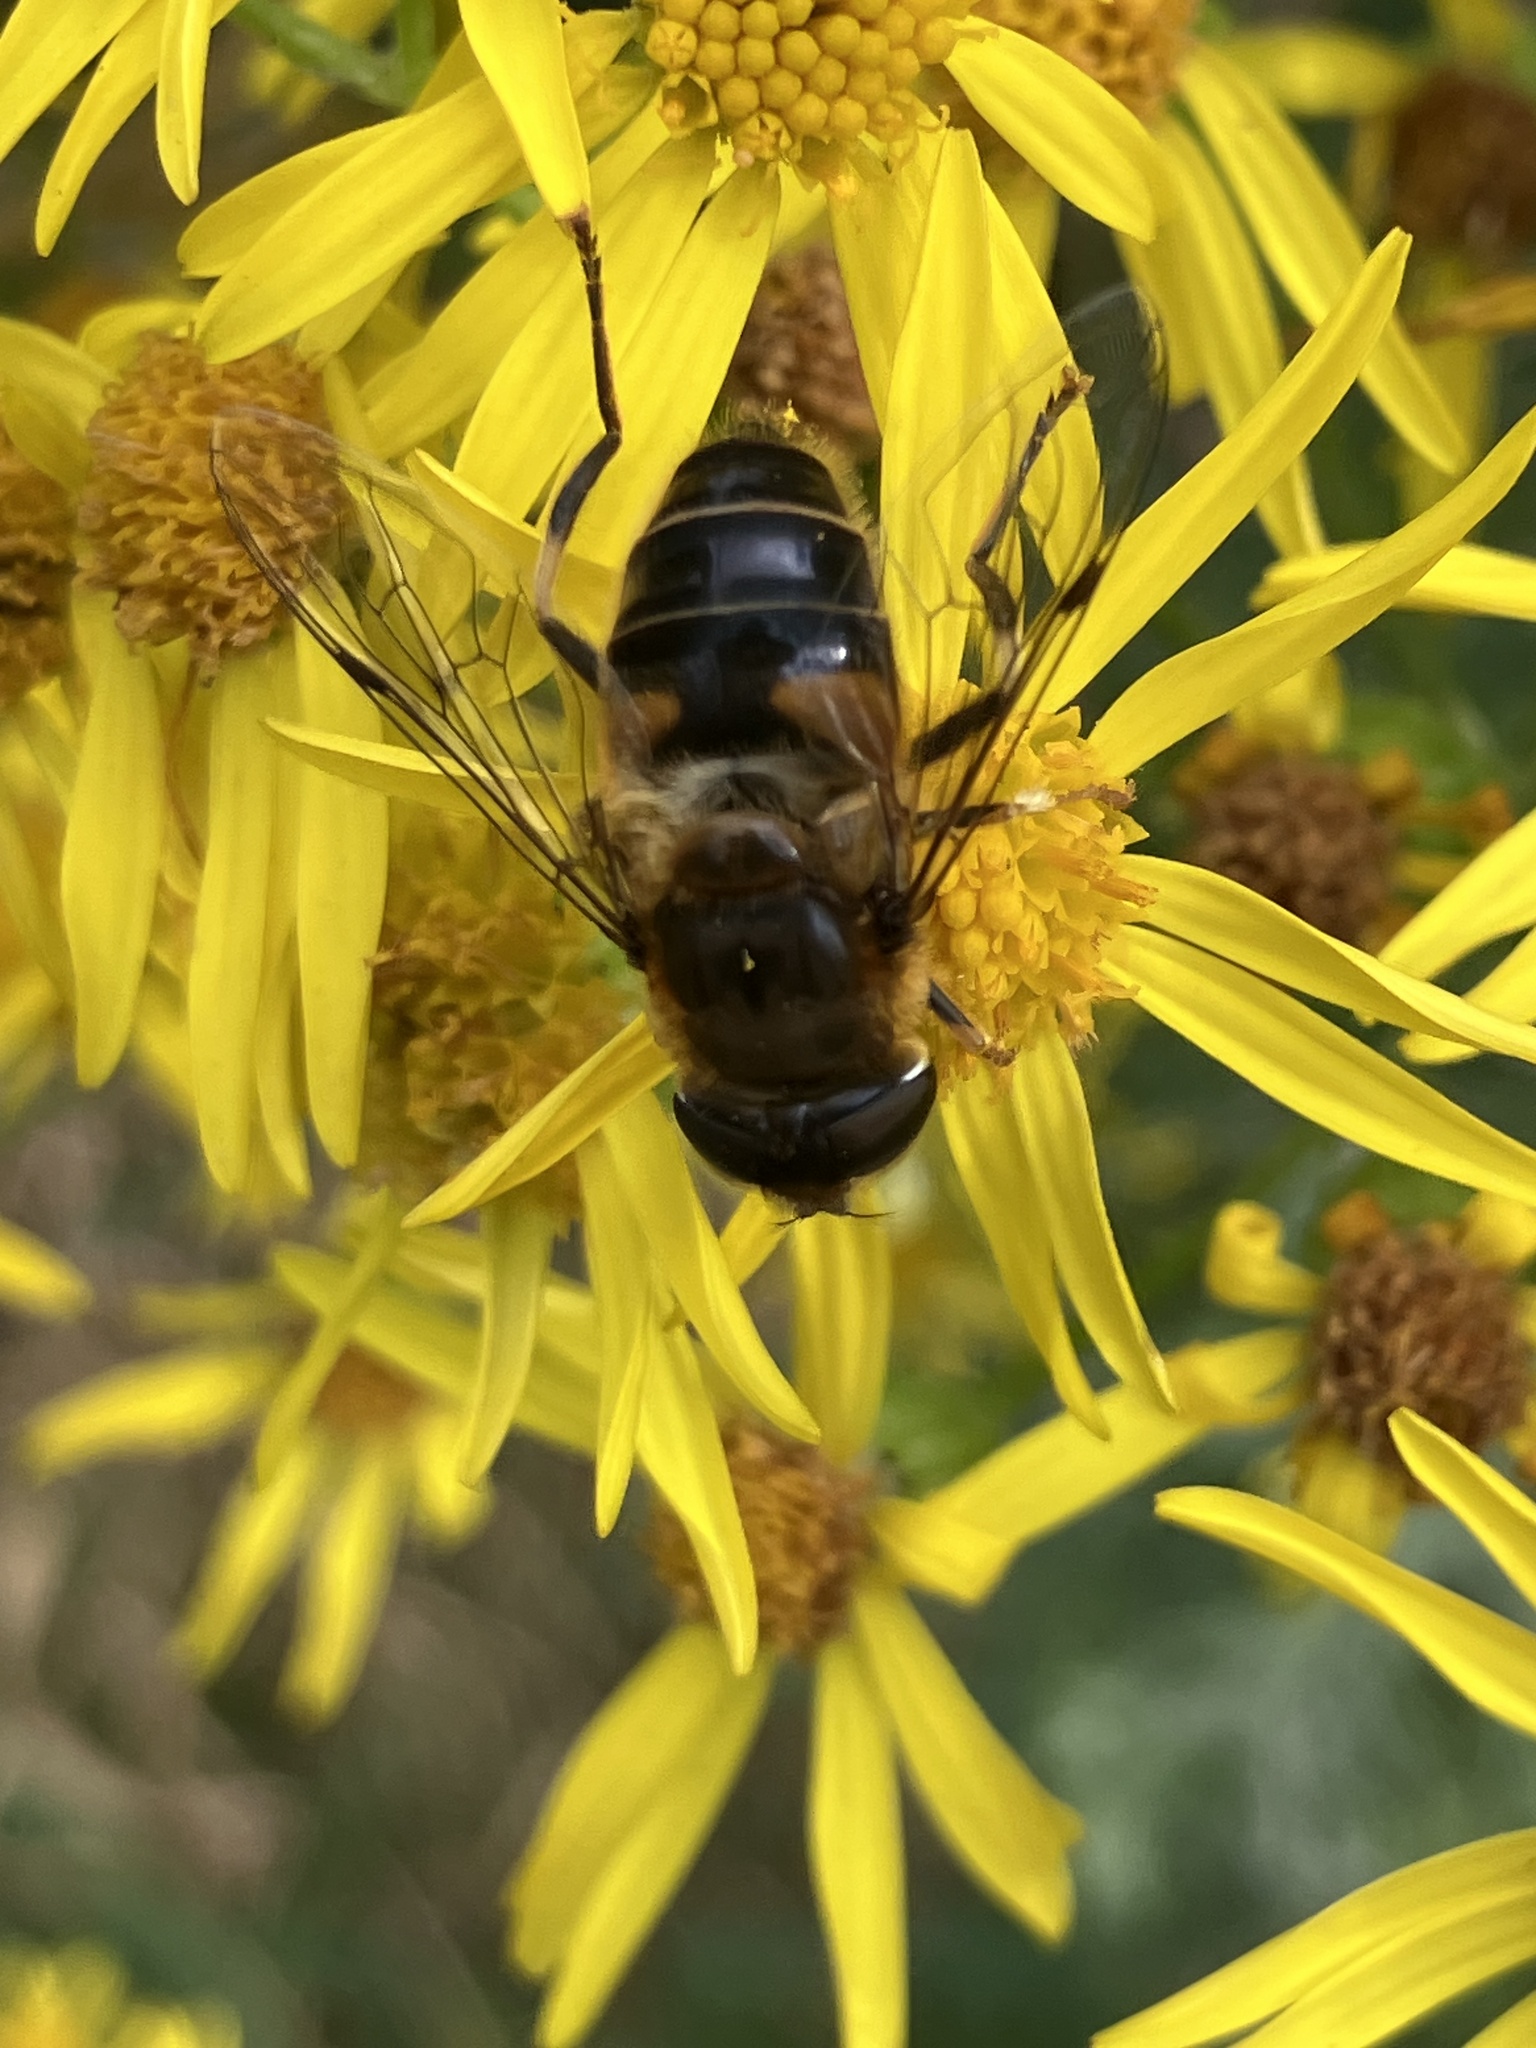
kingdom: Animalia
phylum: Arthropoda
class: Insecta
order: Diptera
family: Syrphidae
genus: Eristalis
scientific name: Eristalis pertinax
